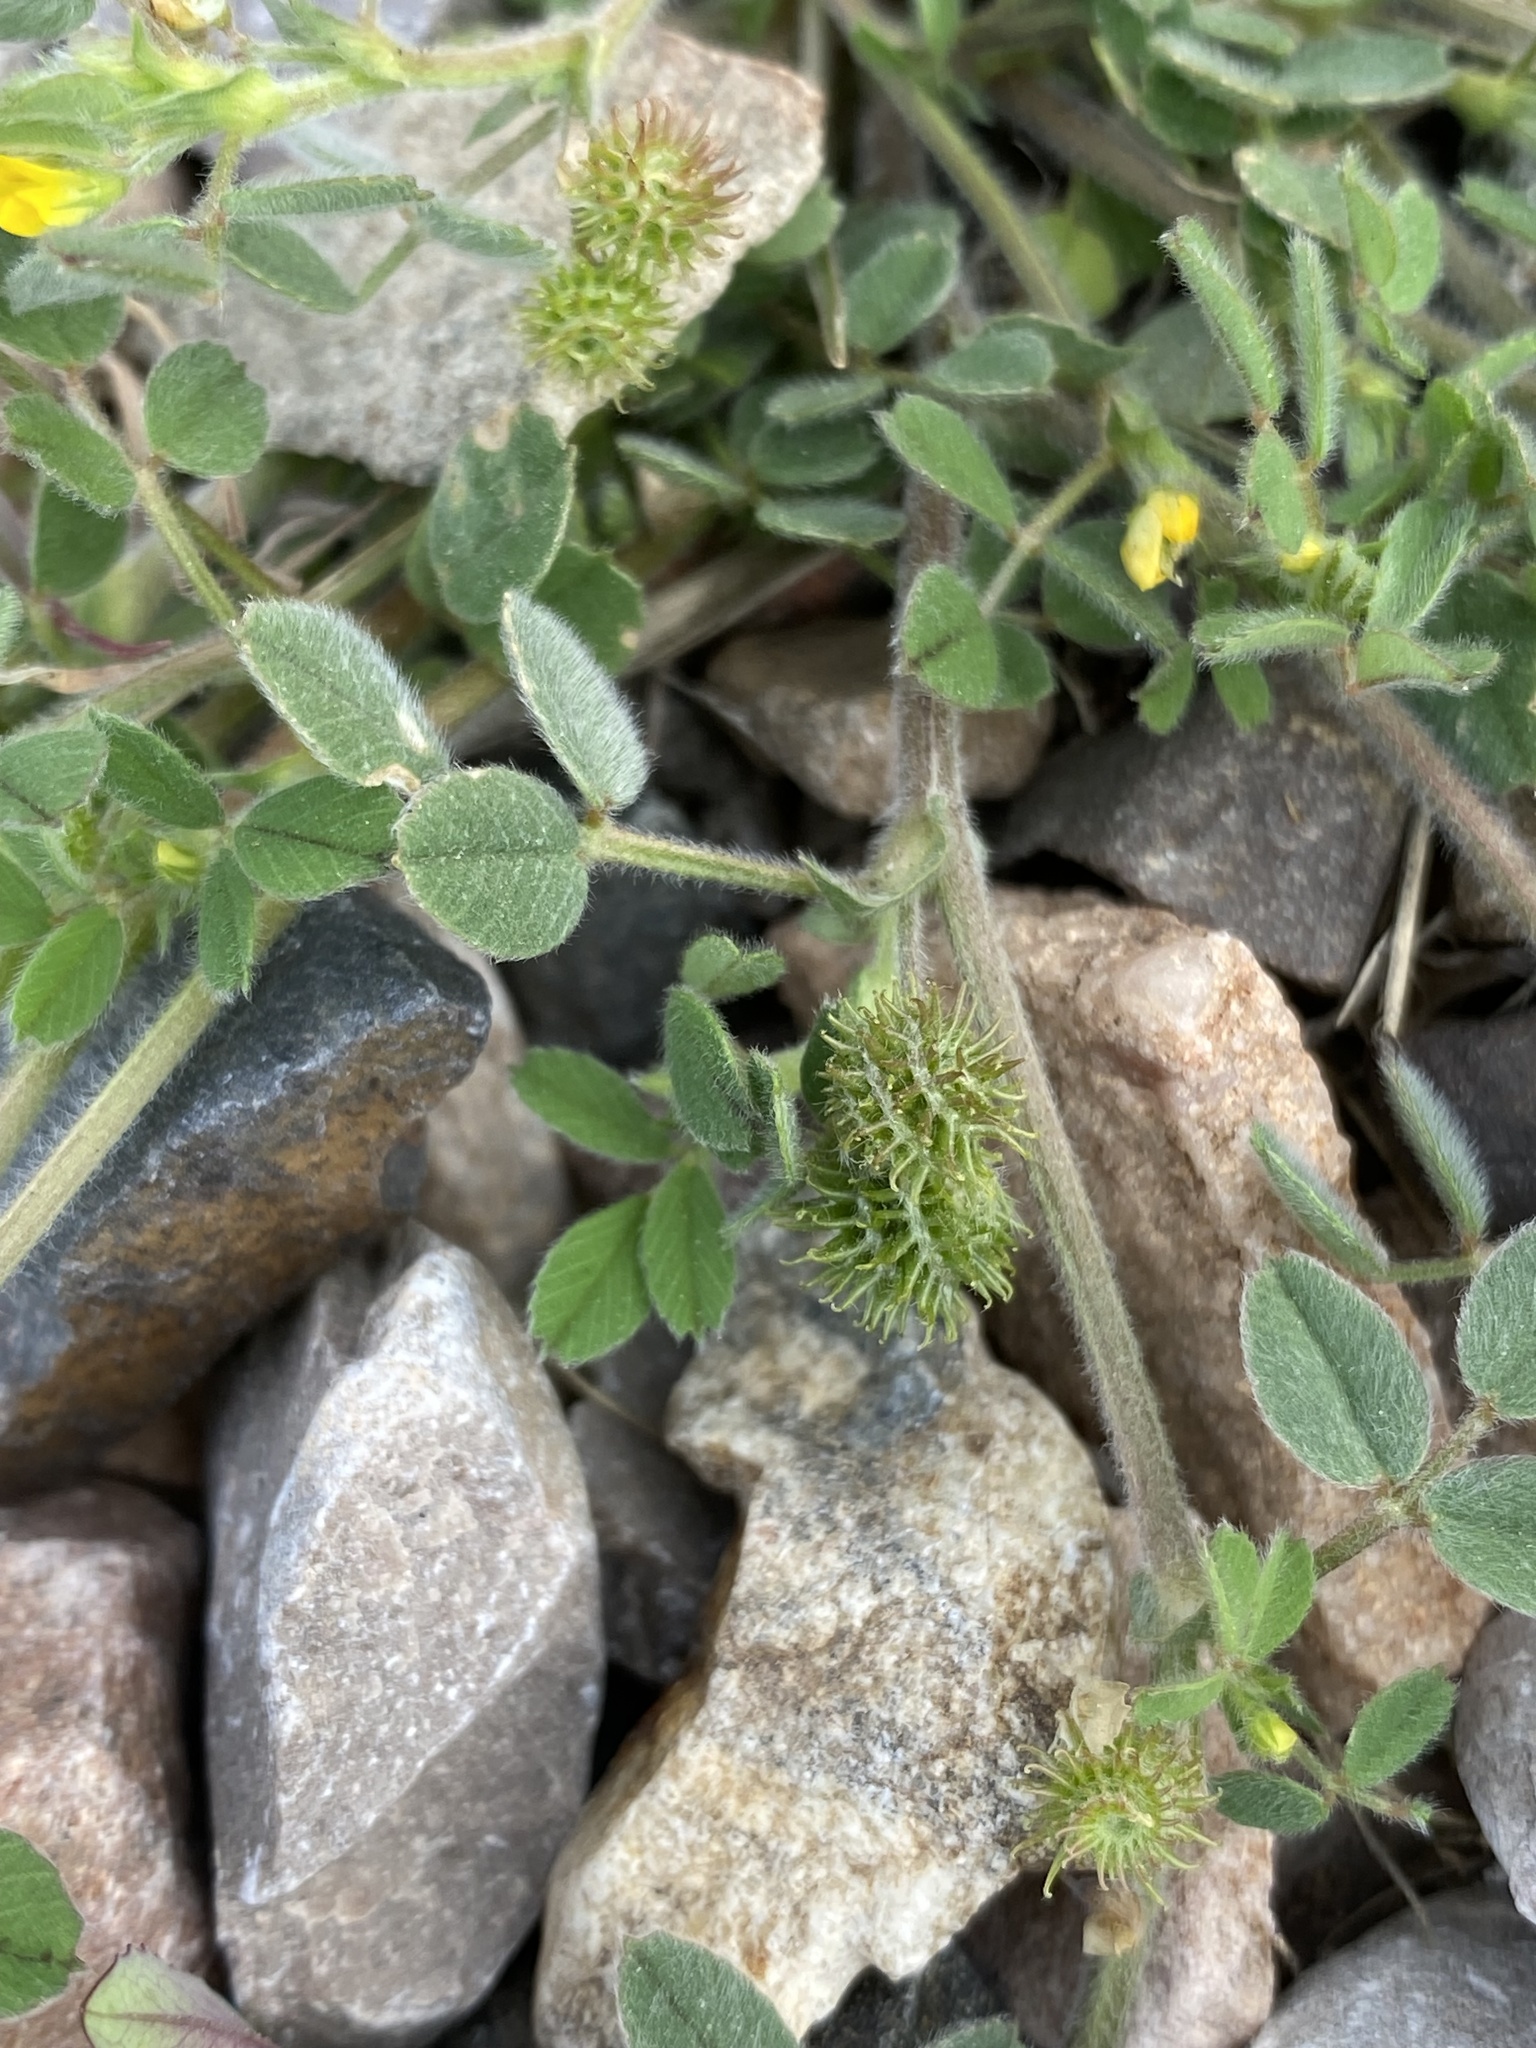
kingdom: Plantae
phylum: Tracheophyta
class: Magnoliopsida
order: Fabales
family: Fabaceae
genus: Medicago
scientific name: Medicago minima
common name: Little bur-clover
